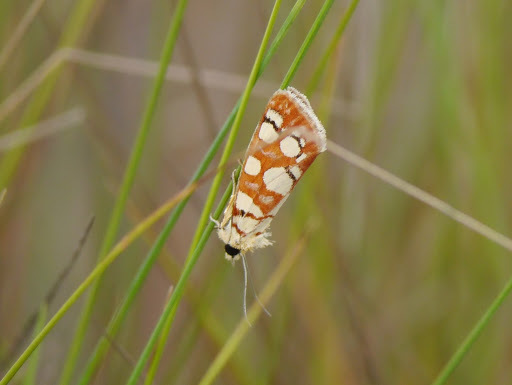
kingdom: Animalia
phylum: Arthropoda
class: Insecta
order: Lepidoptera
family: Noctuidae
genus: Crameria
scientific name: Crameria amabilis
